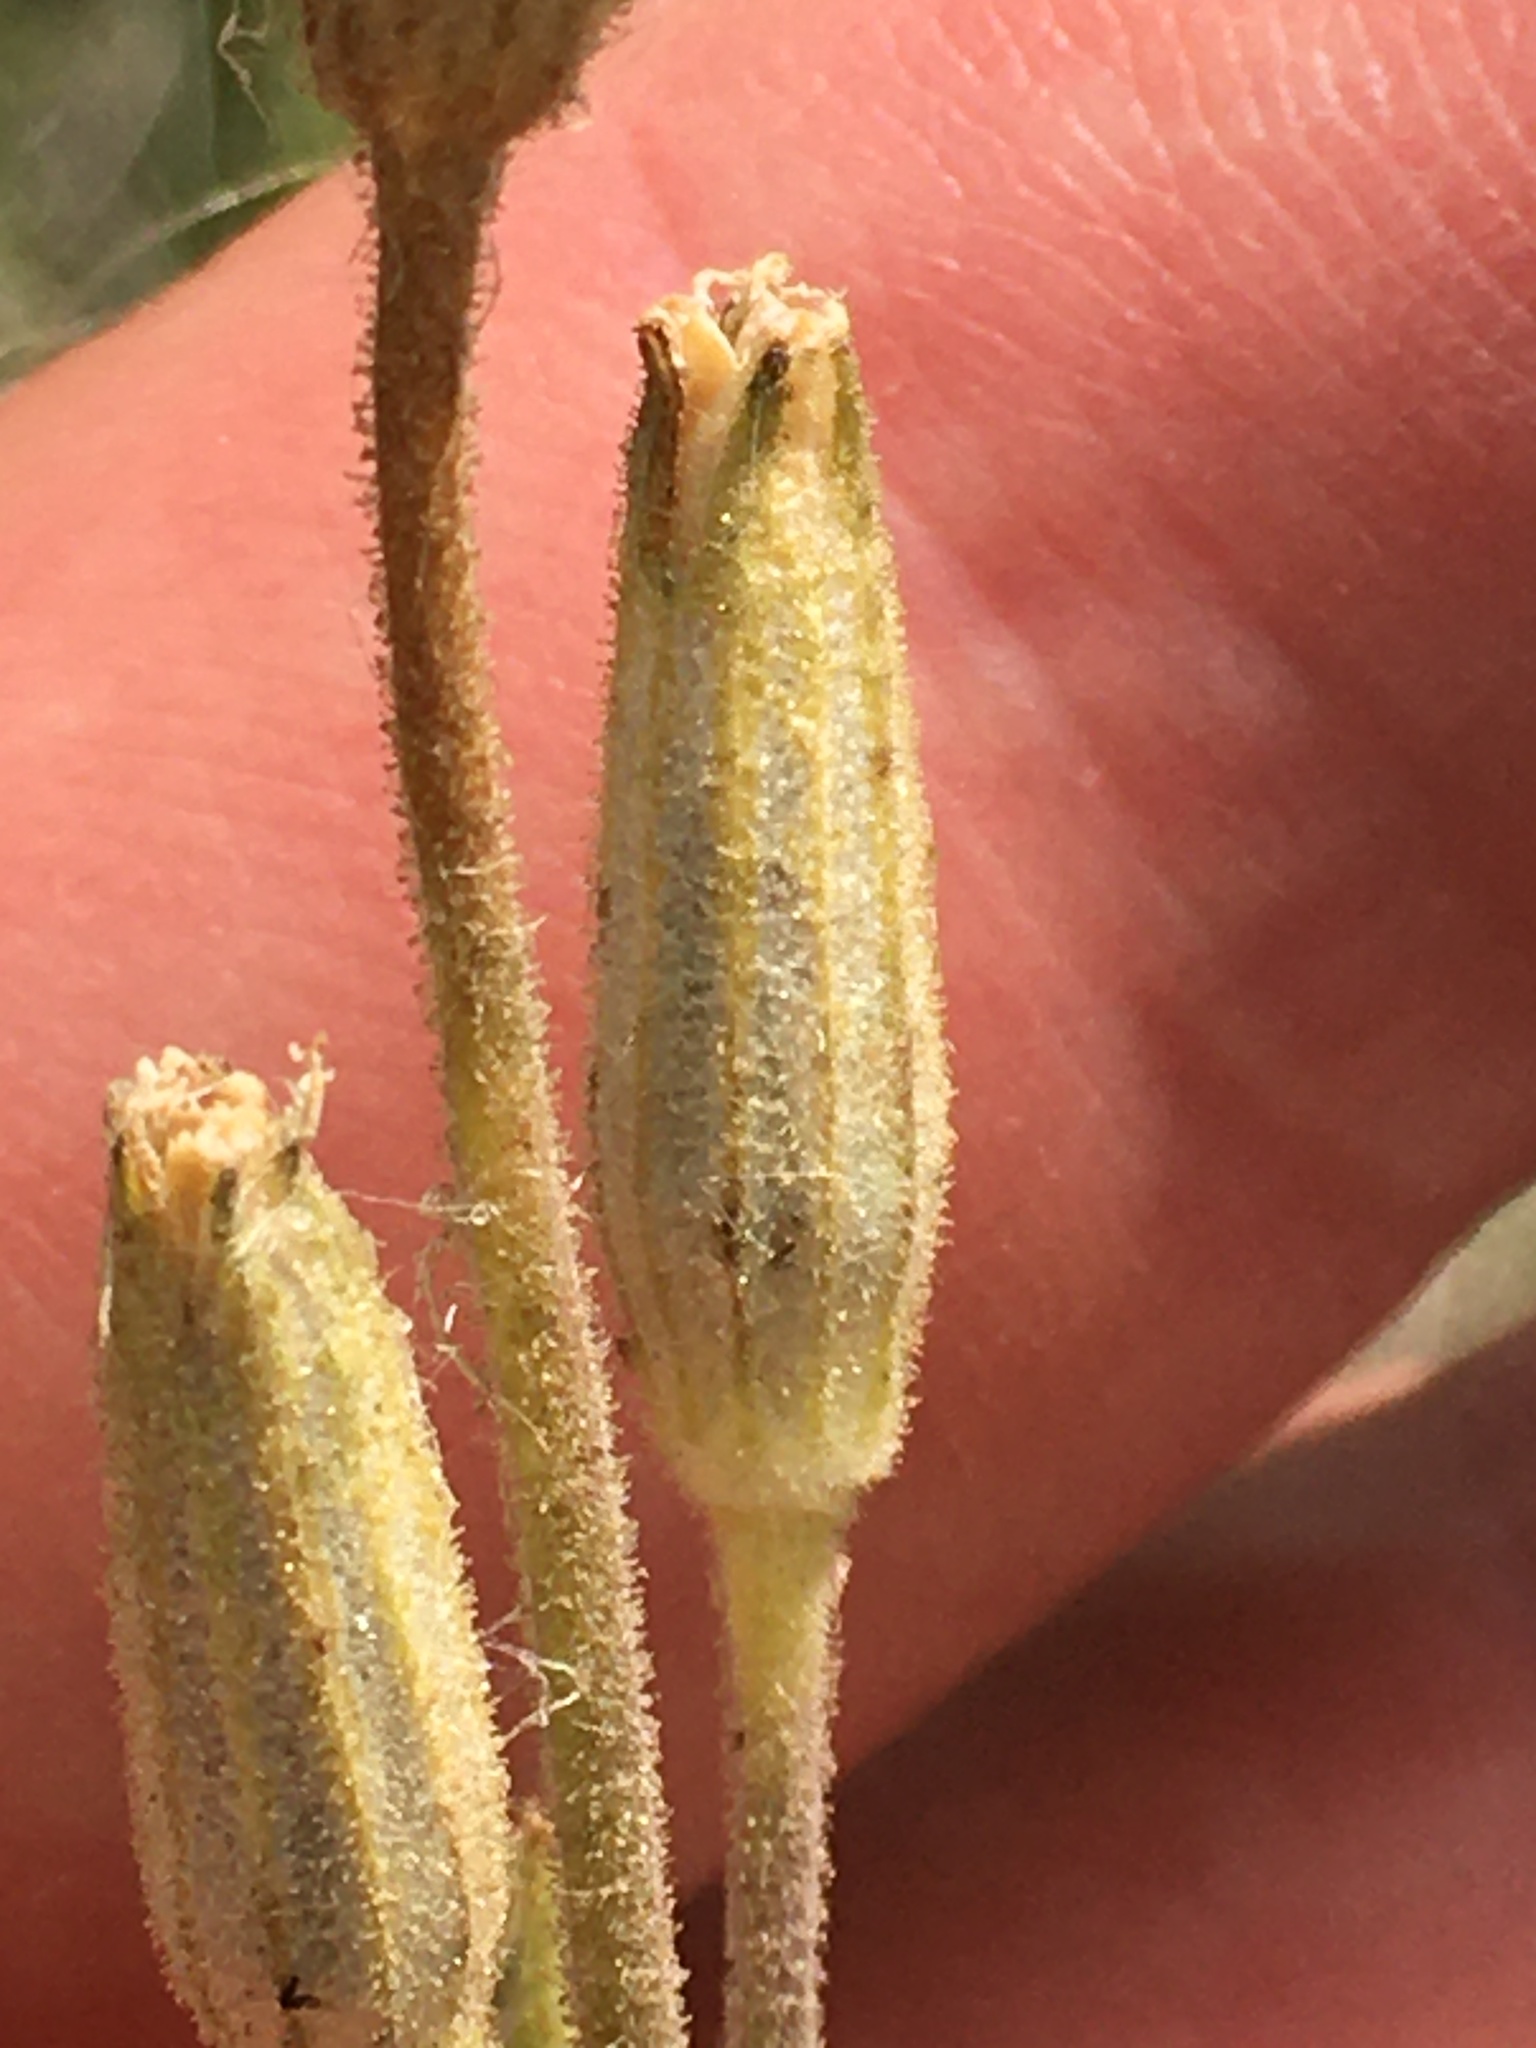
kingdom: Plantae
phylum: Tracheophyta
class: Magnoliopsida
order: Caryophyllales
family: Caryophyllaceae
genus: Silene
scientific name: Silene drummondii
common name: Drummond's catchfly
